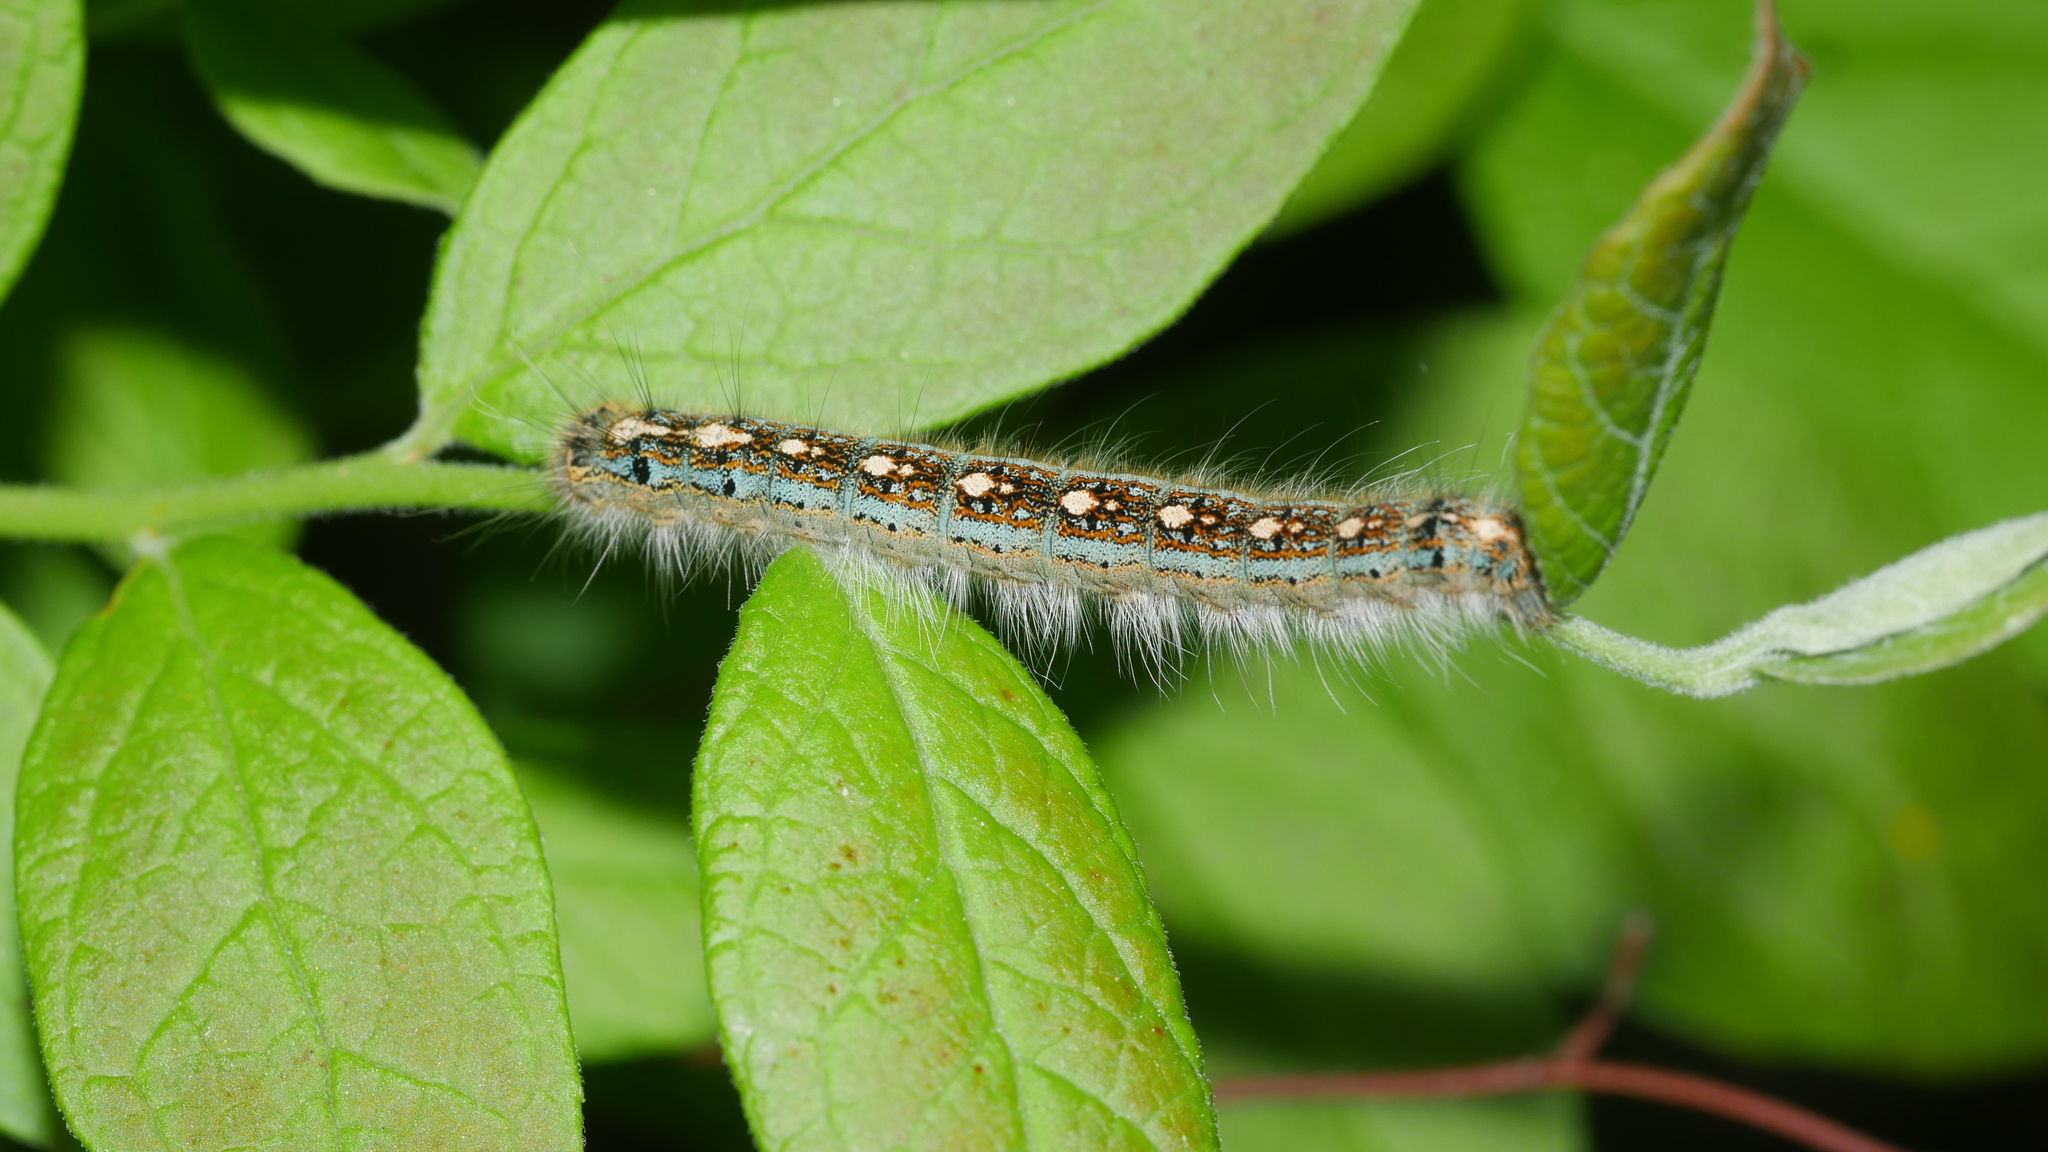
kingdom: Animalia
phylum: Arthropoda
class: Insecta
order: Lepidoptera
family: Lasiocampidae
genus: Malacosoma
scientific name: Malacosoma disstria
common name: Forest tent caterpillar
